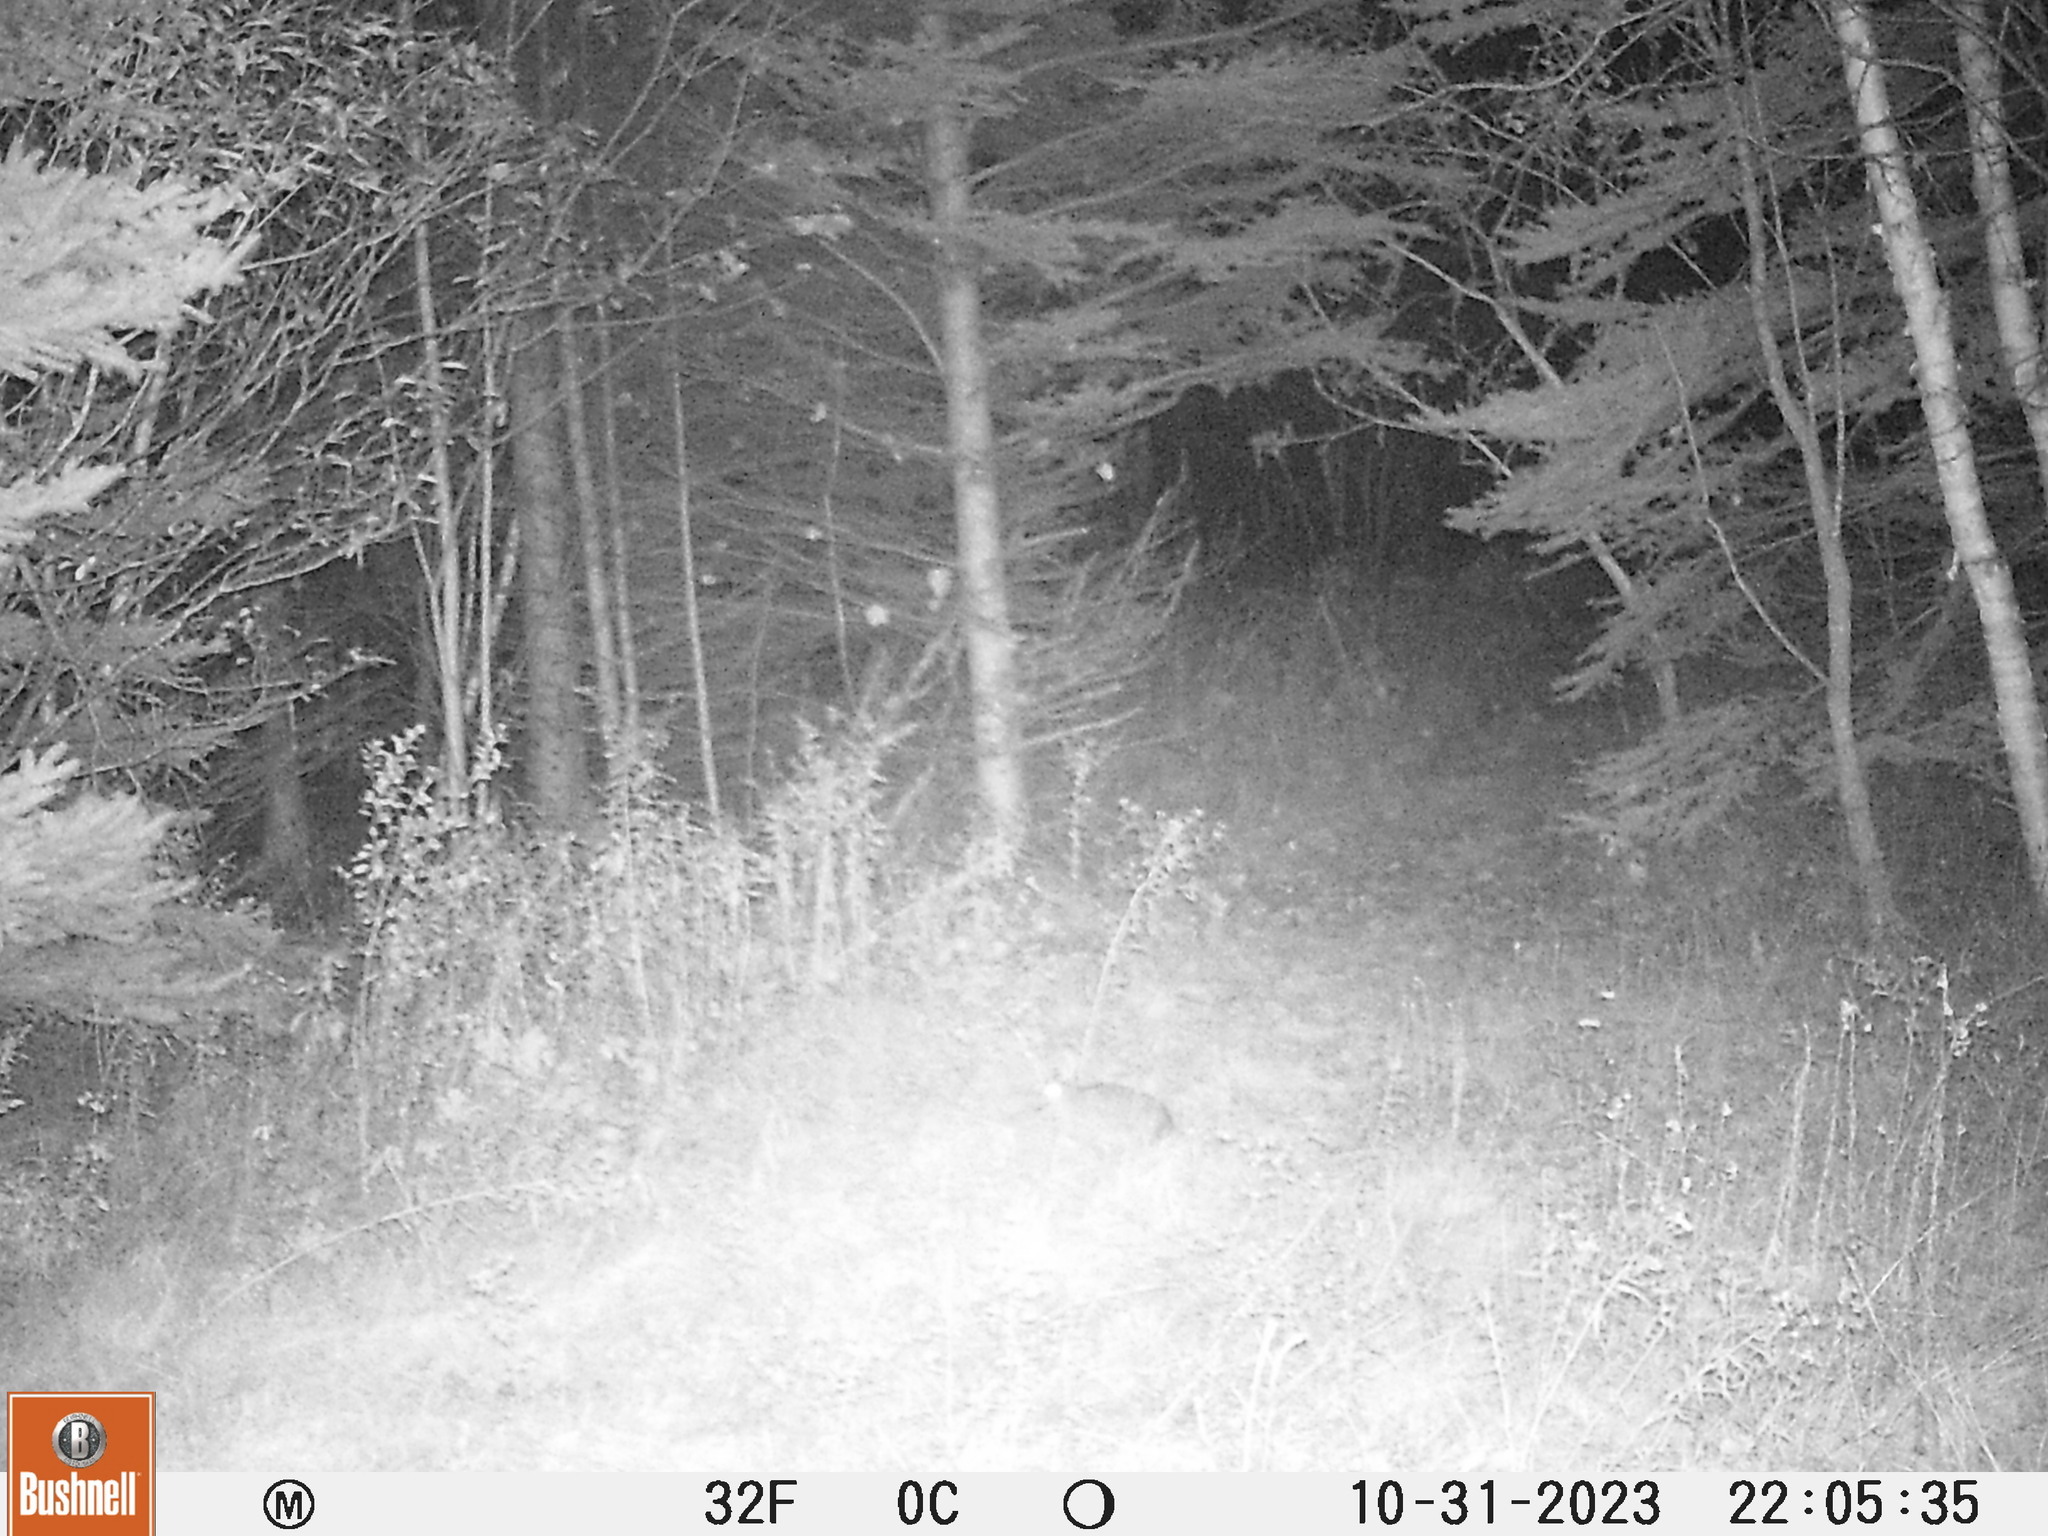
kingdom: Animalia
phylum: Chordata
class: Mammalia
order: Lagomorpha
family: Leporidae
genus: Lepus
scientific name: Lepus americanus
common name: Snowshoe hare
